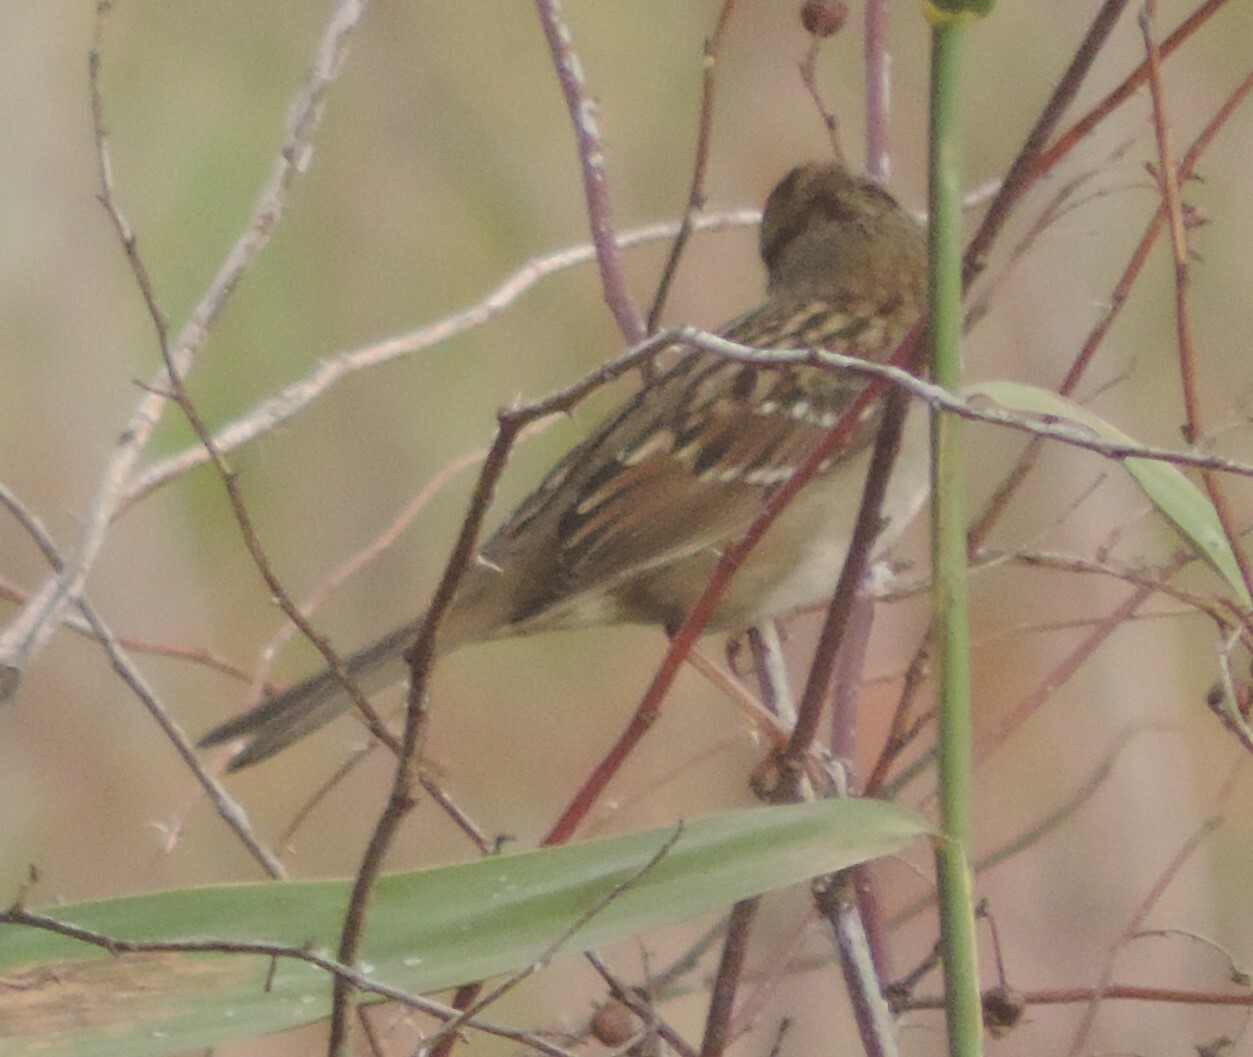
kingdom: Animalia
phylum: Chordata
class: Aves
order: Passeriformes
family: Passerellidae
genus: Zonotrichia
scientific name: Zonotrichia leucophrys
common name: White-crowned sparrow
